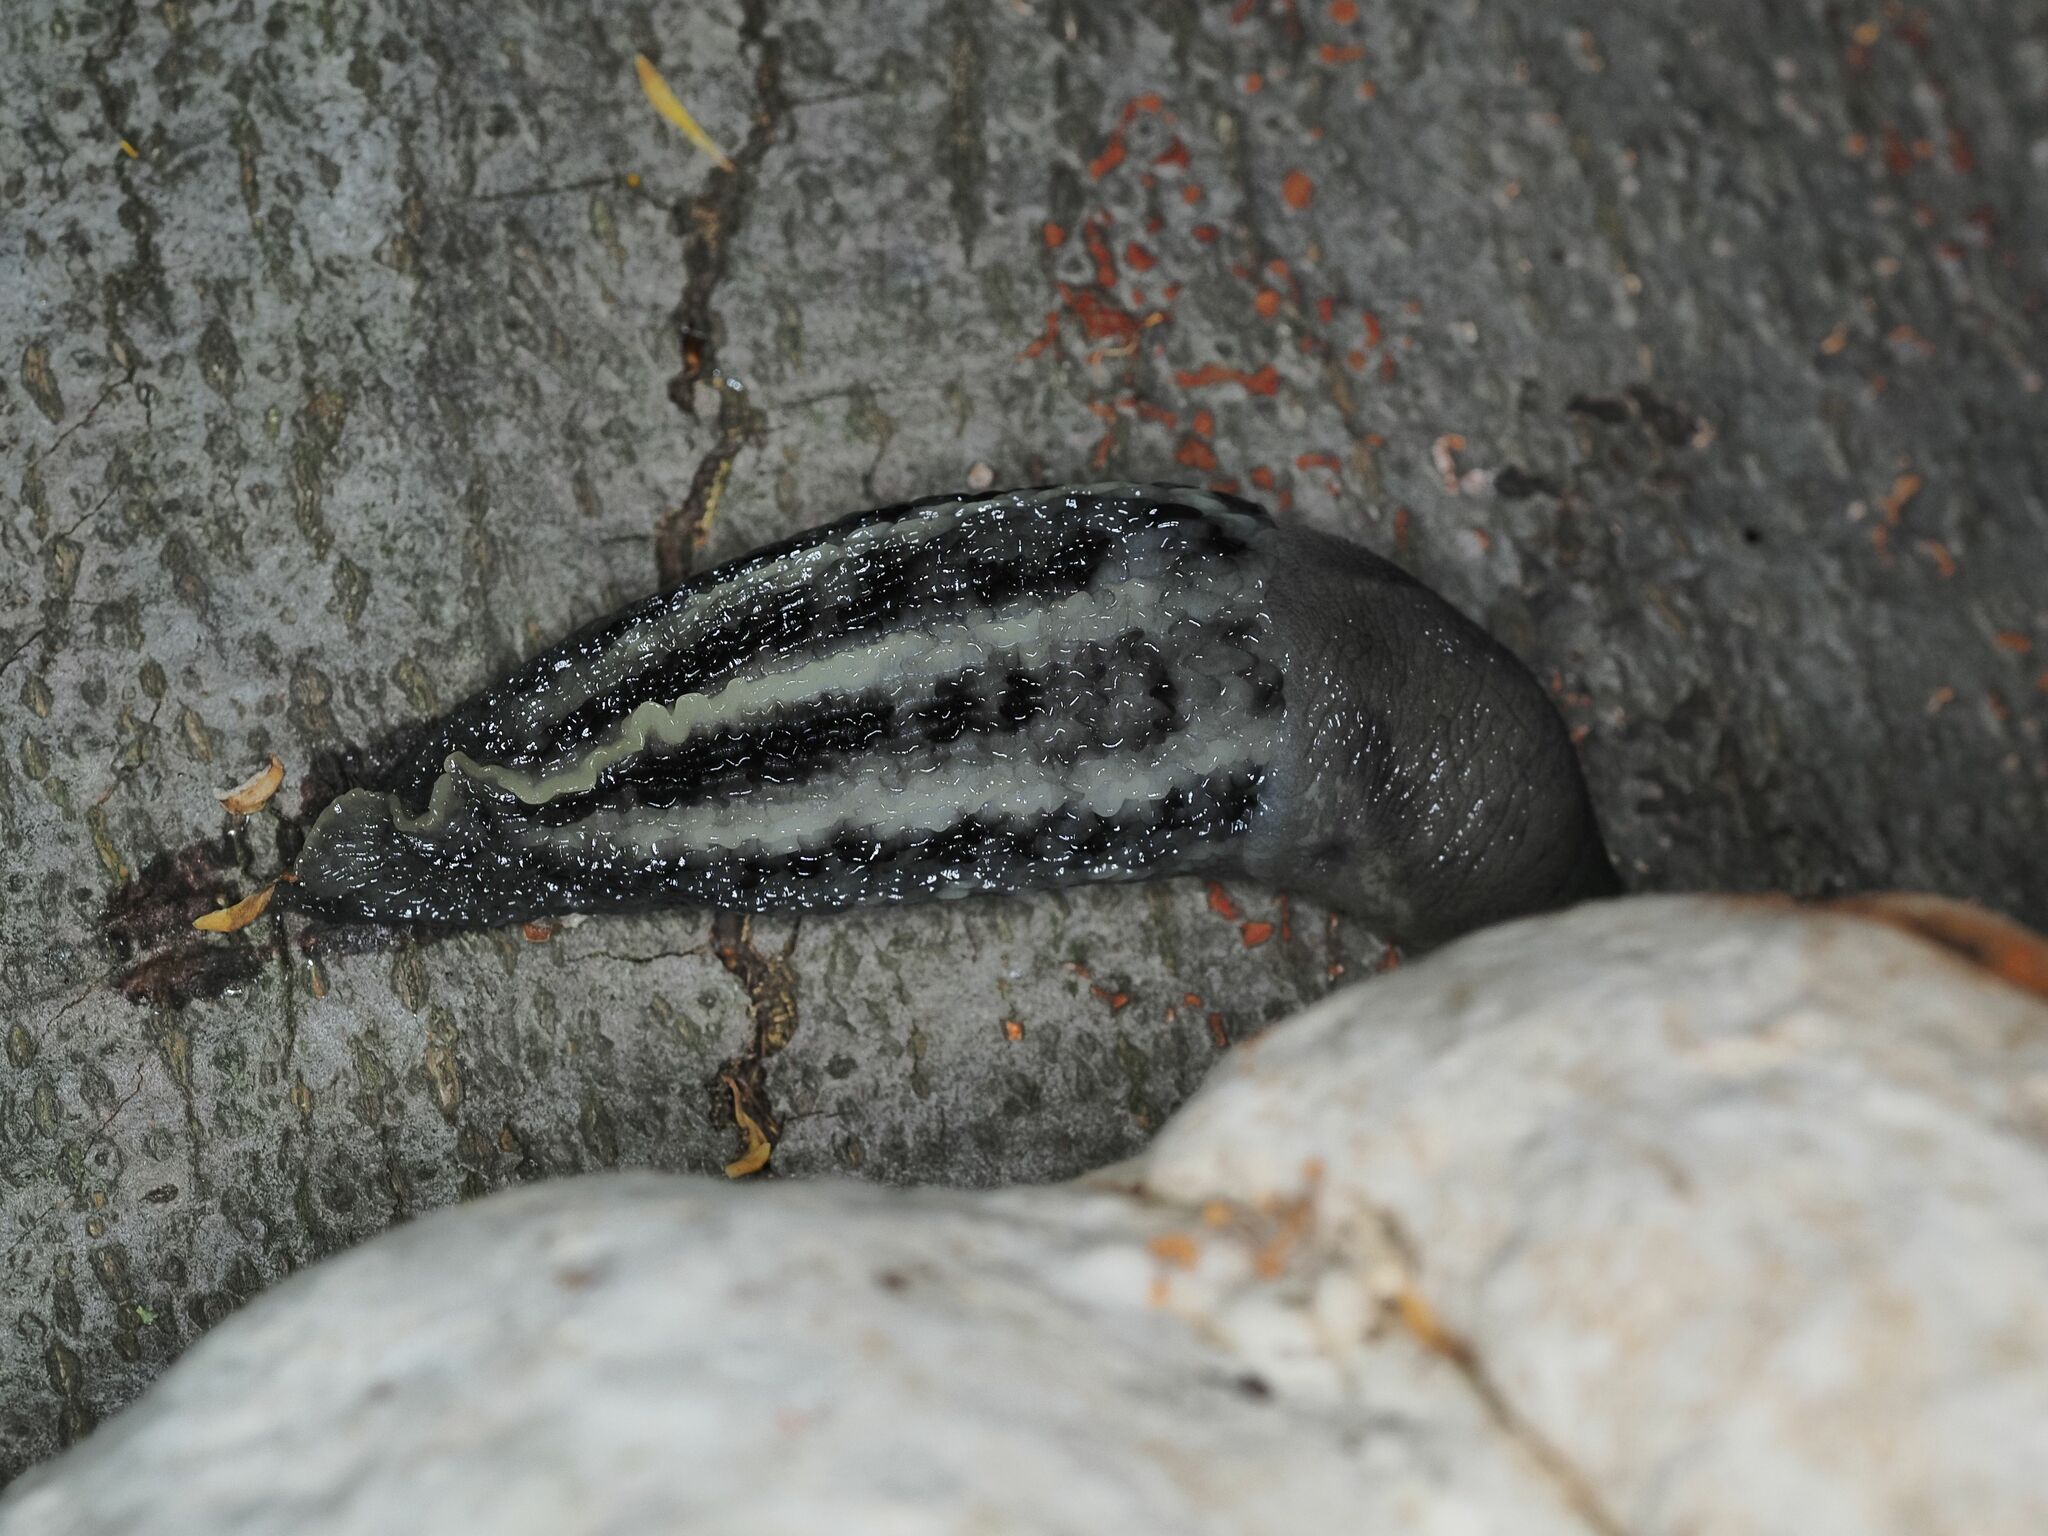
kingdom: Animalia
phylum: Mollusca
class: Gastropoda
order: Stylommatophora
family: Limacidae
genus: Limax
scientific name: Limax cinereoniger
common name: Ash-black slug
